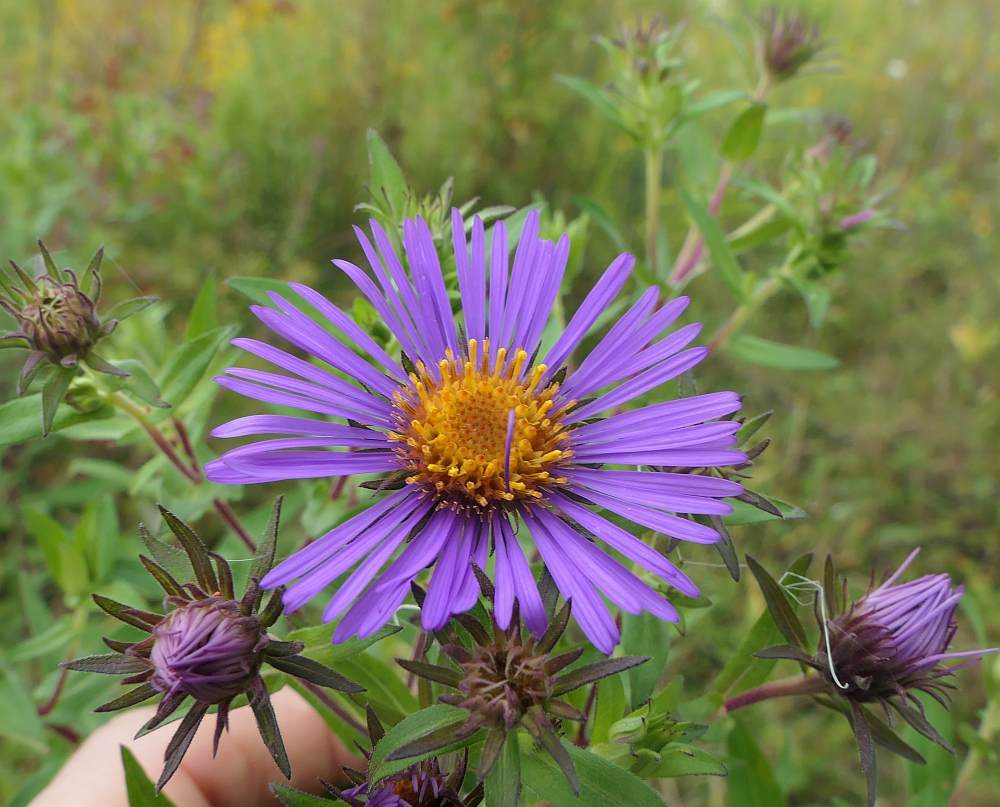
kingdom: Plantae
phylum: Tracheophyta
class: Magnoliopsida
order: Asterales
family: Asteraceae
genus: Symphyotrichum
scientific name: Symphyotrichum novae-angliae
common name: Michaelmas daisy
